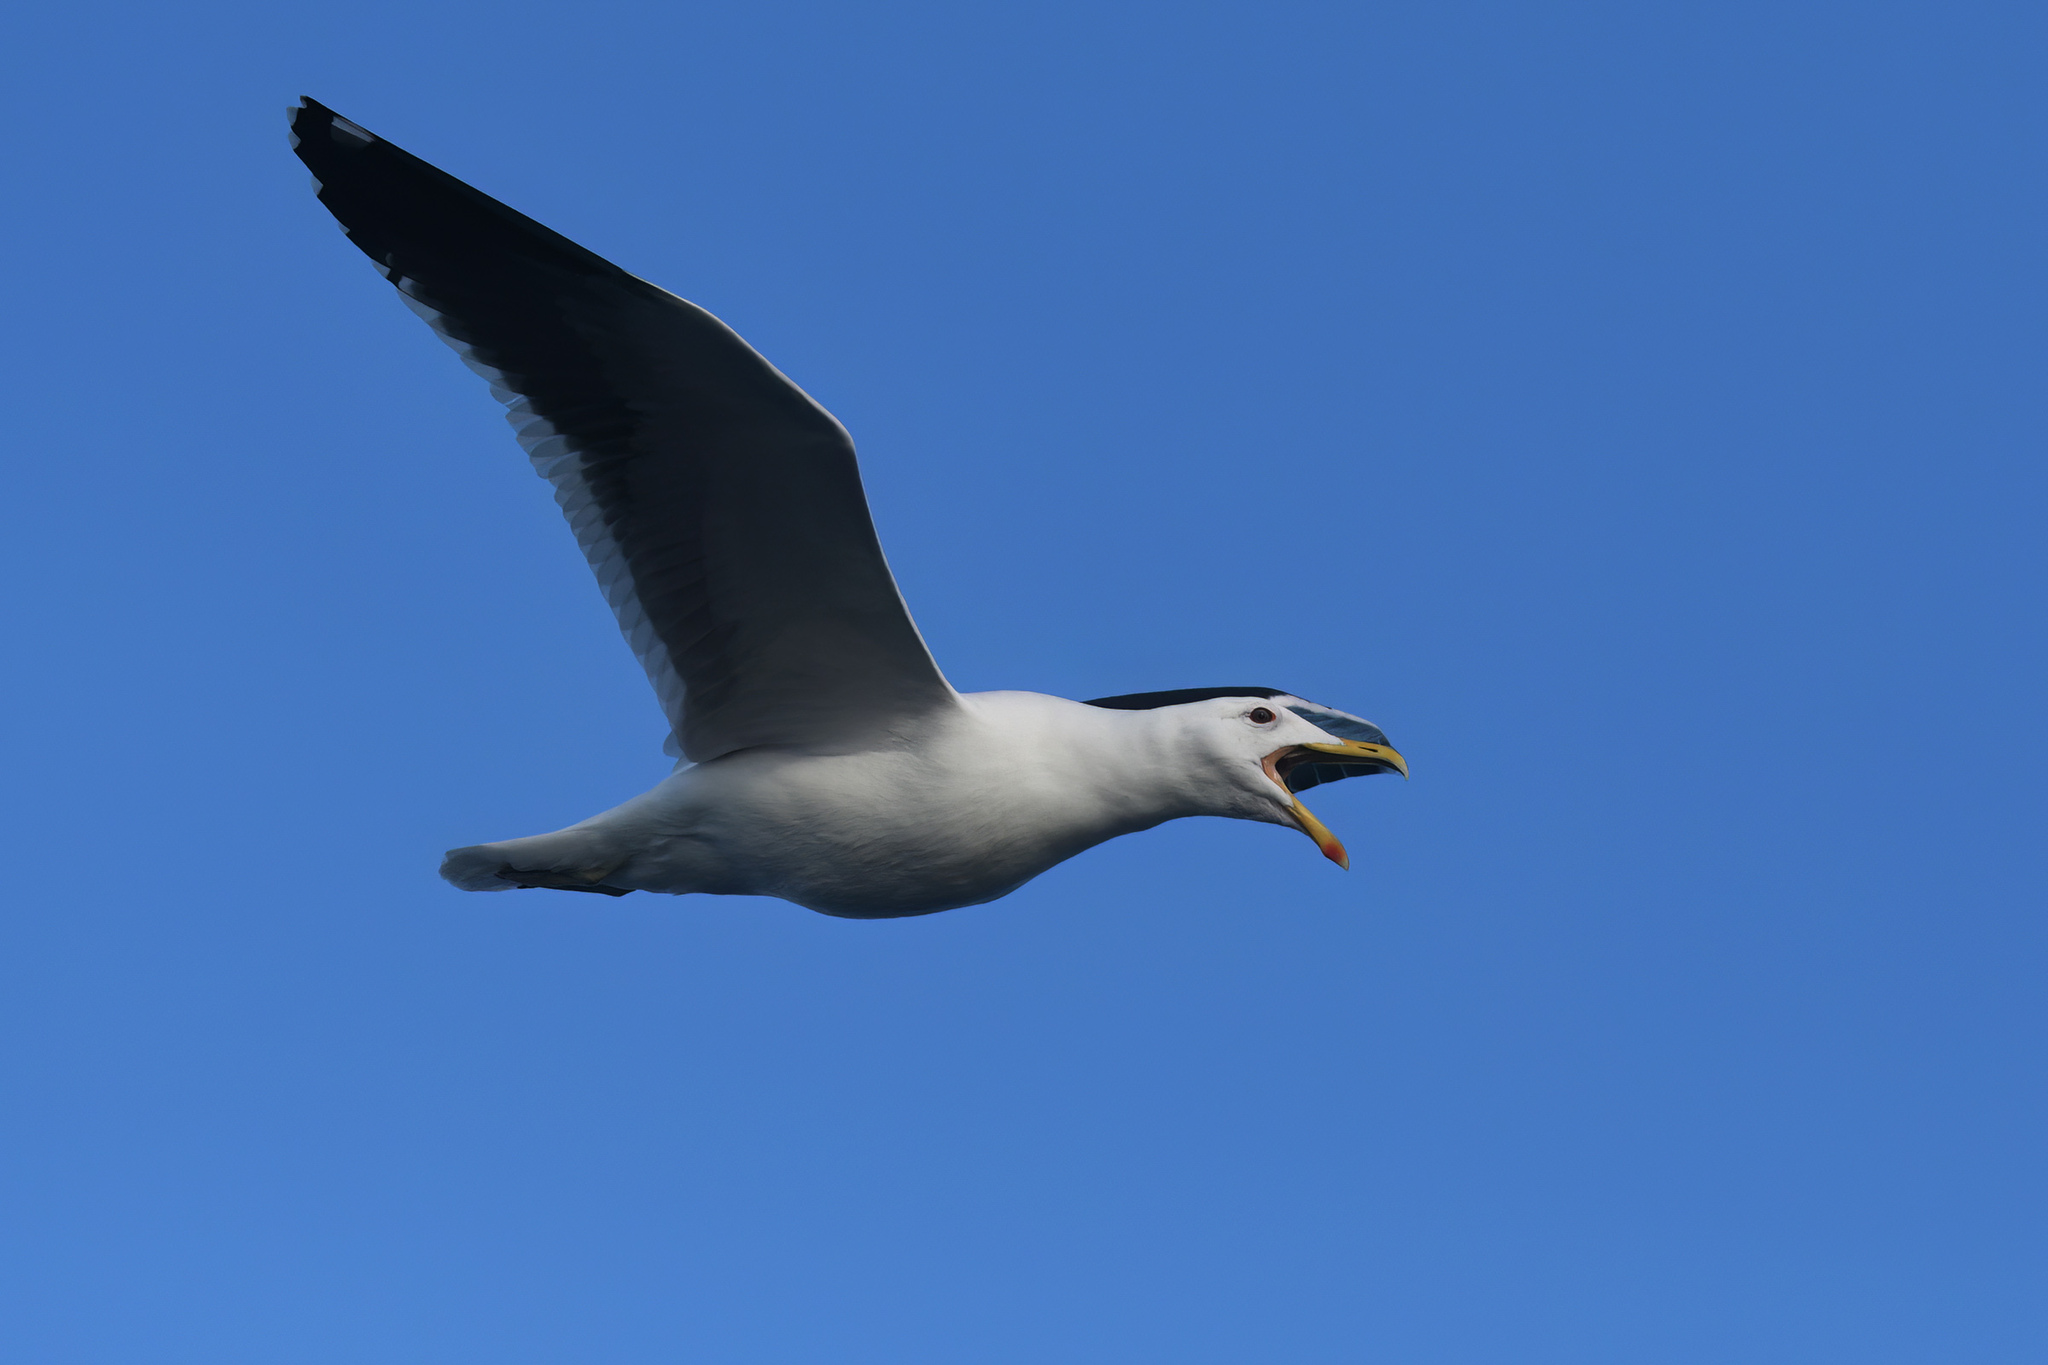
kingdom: Animalia
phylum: Chordata
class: Aves
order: Charadriiformes
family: Laridae
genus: Larus
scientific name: Larus dominicanus
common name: Kelp gull
